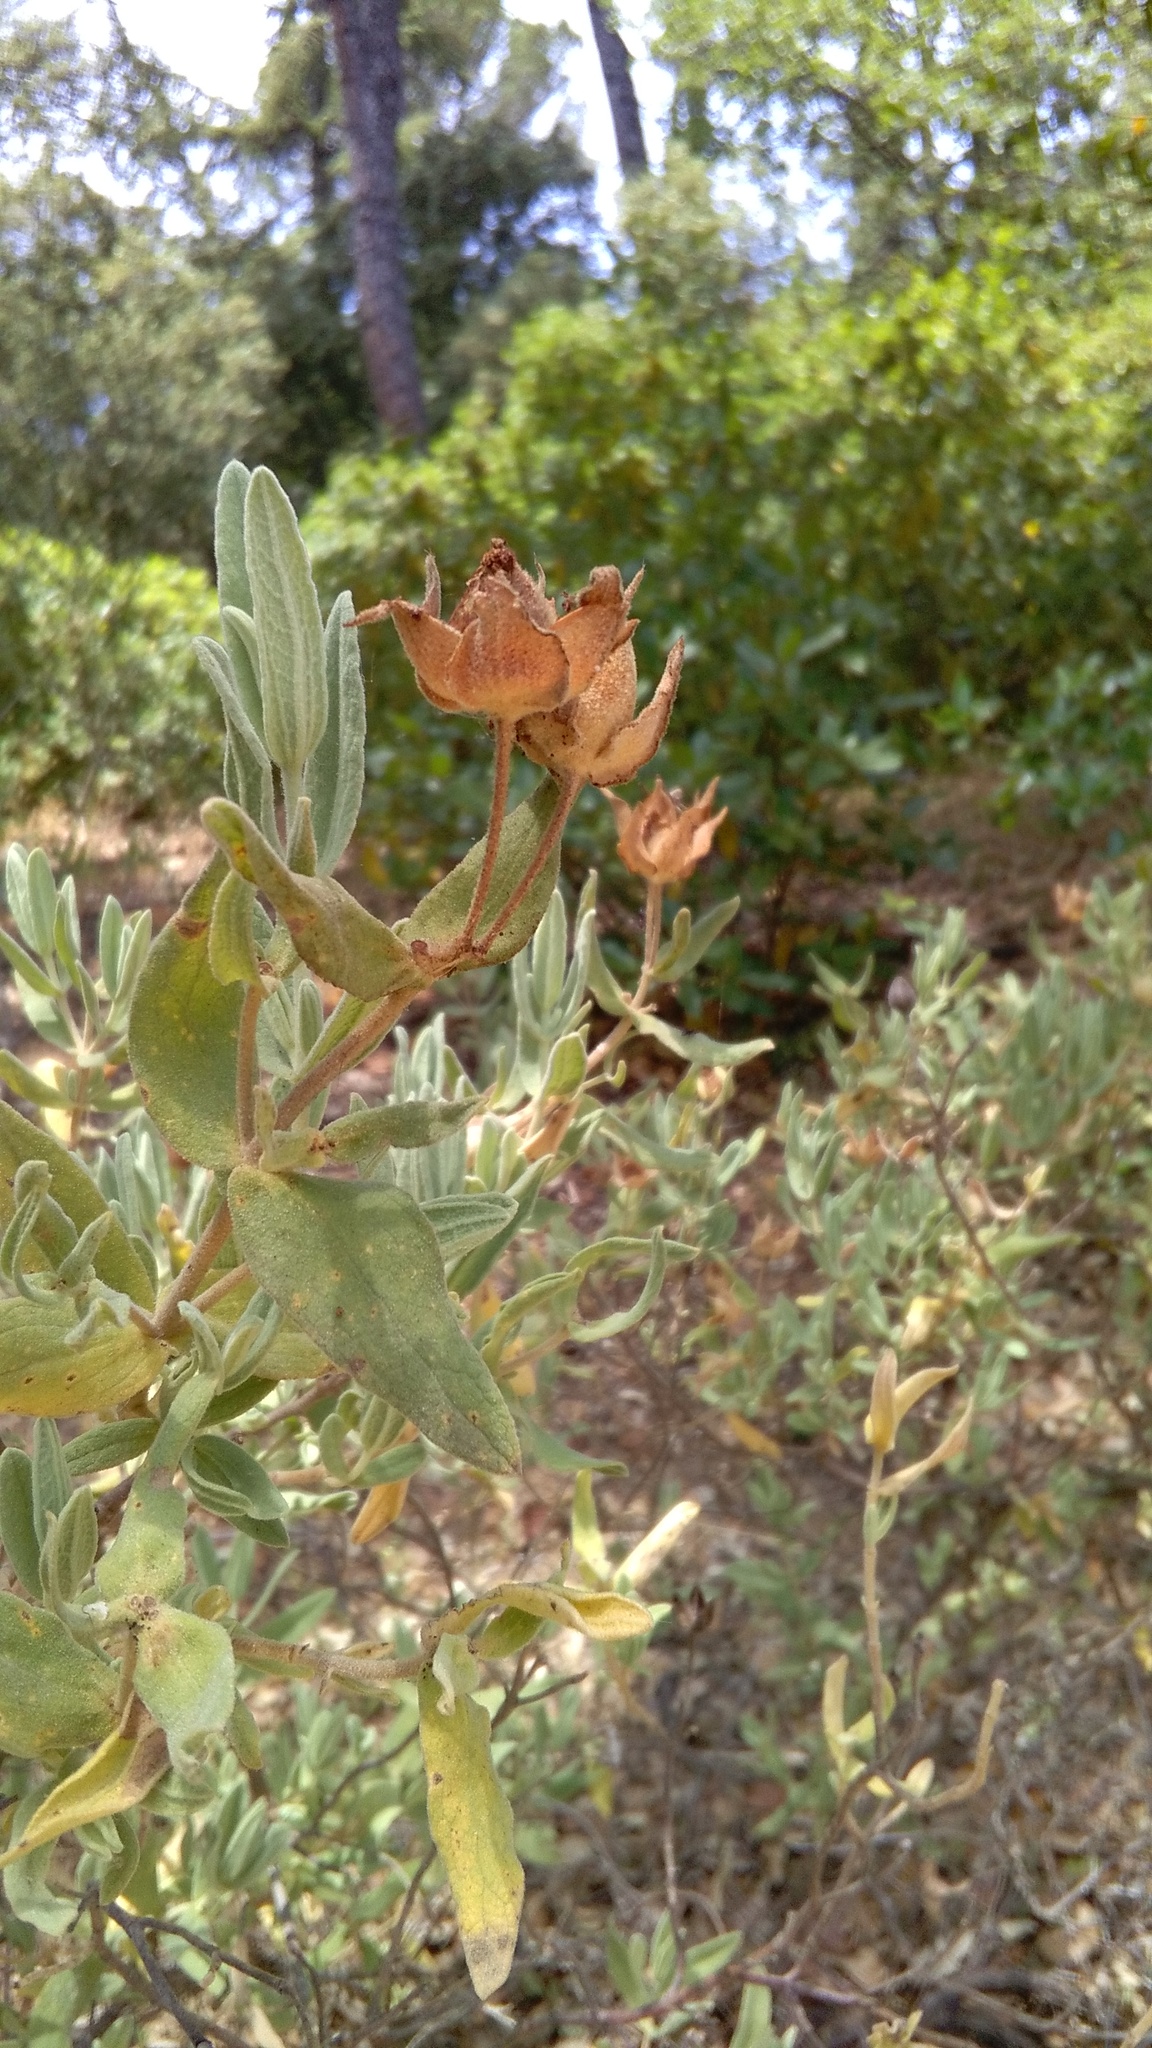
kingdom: Plantae
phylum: Tracheophyta
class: Magnoliopsida
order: Malvales
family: Cistaceae
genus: Cistus
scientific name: Cistus albidus
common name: White-leaf rock-rose
